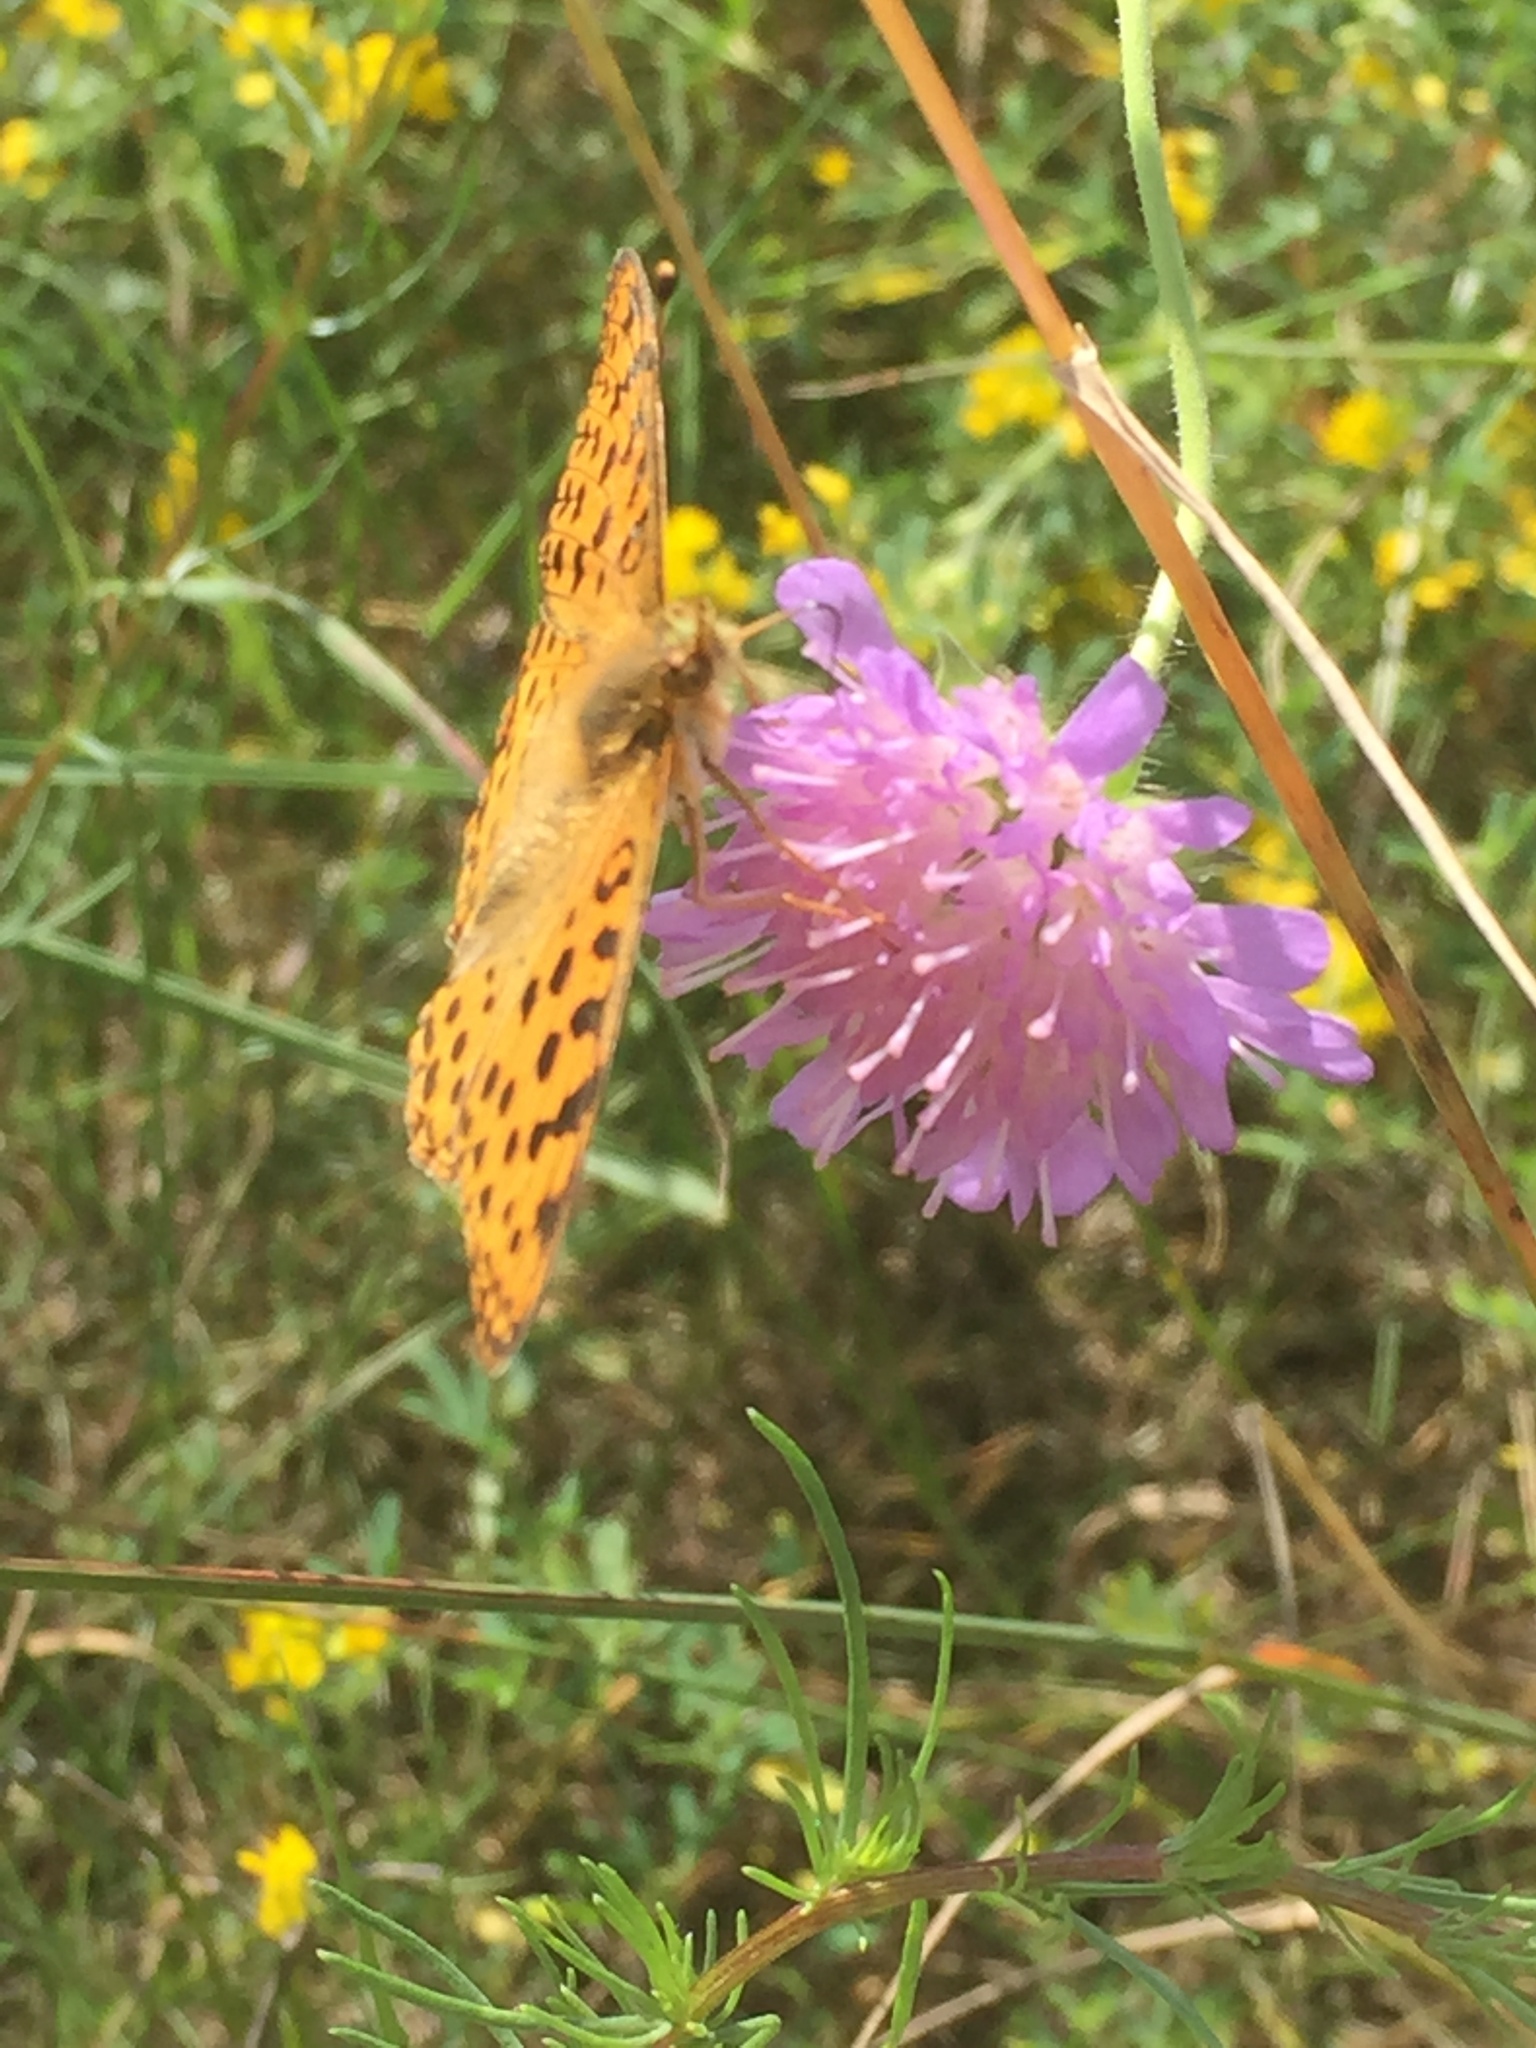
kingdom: Animalia
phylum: Arthropoda
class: Insecta
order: Lepidoptera
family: Nymphalidae
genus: Issoria
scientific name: Issoria lathonia
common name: Queen of spain fritillary
